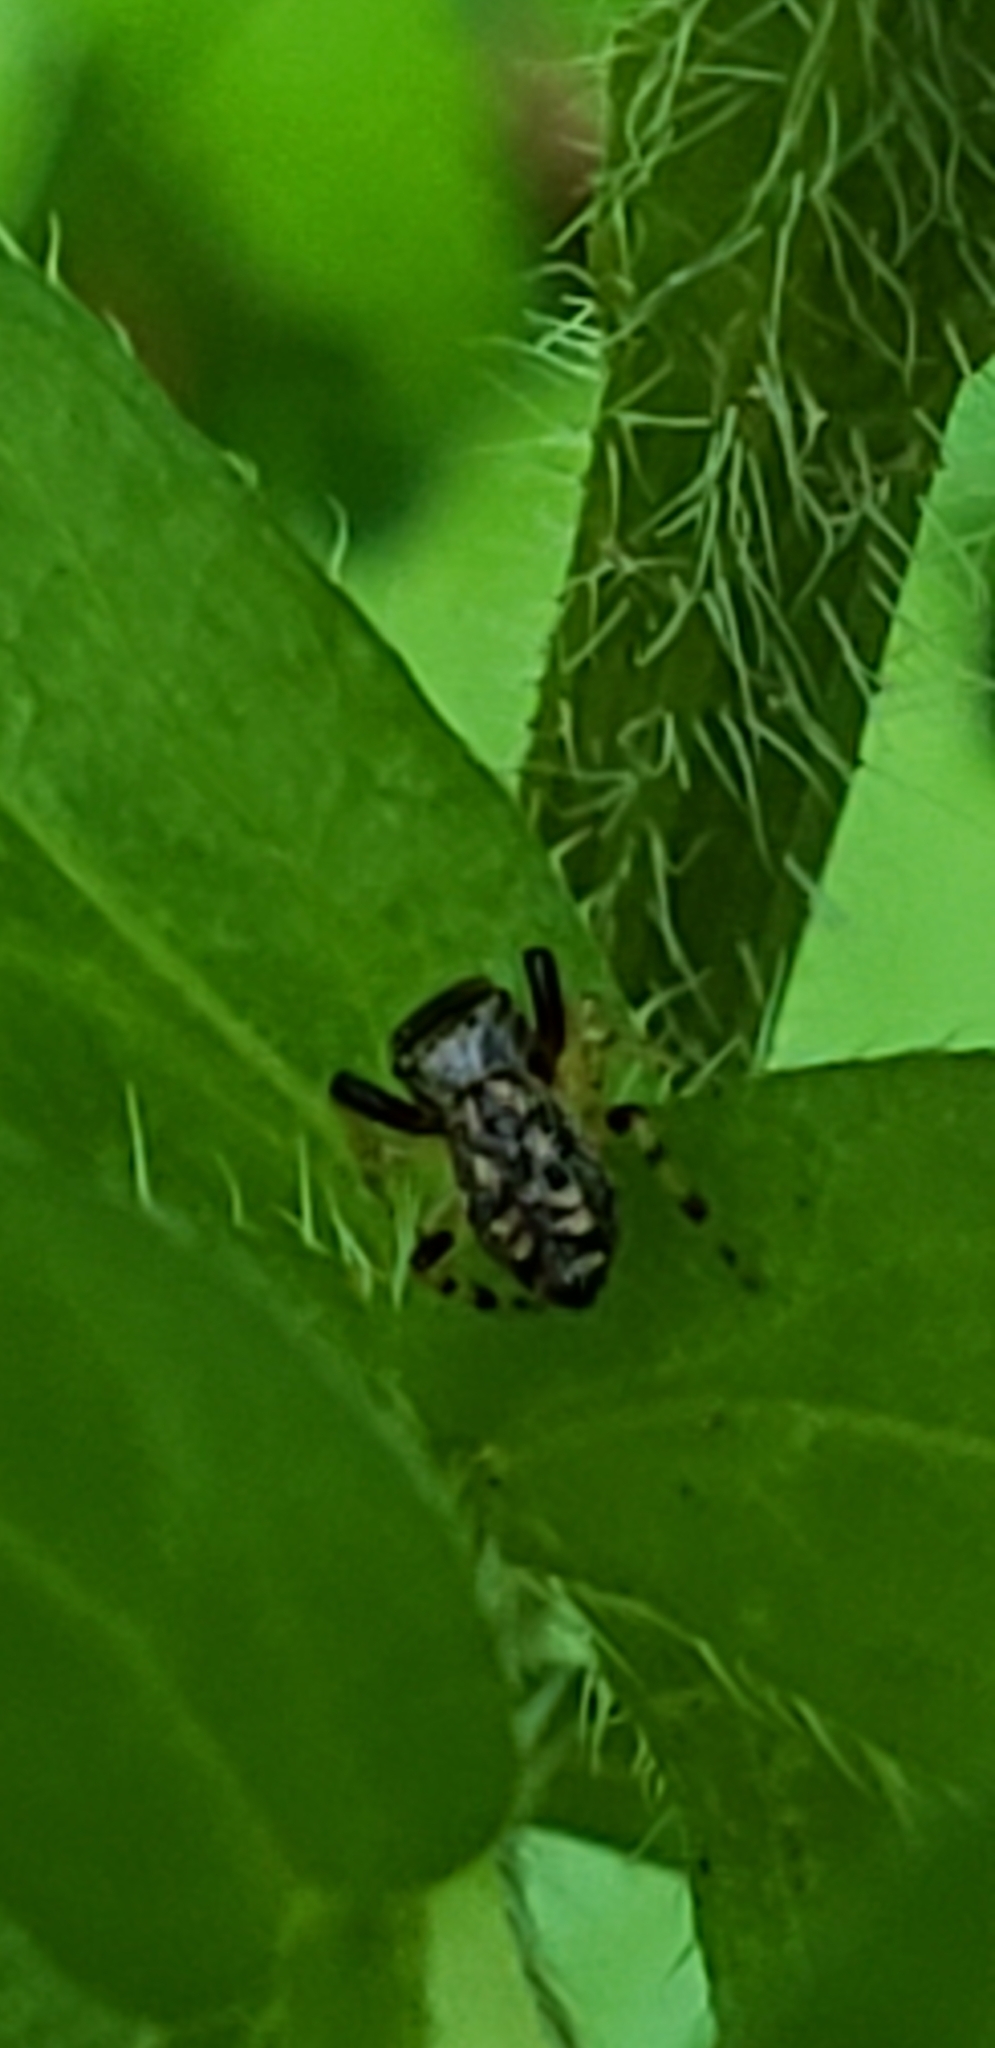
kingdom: Animalia
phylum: Arthropoda
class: Arachnida
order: Araneae
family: Salticidae
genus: Zygoballus
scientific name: Zygoballus rufipes
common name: Jumping spiders
